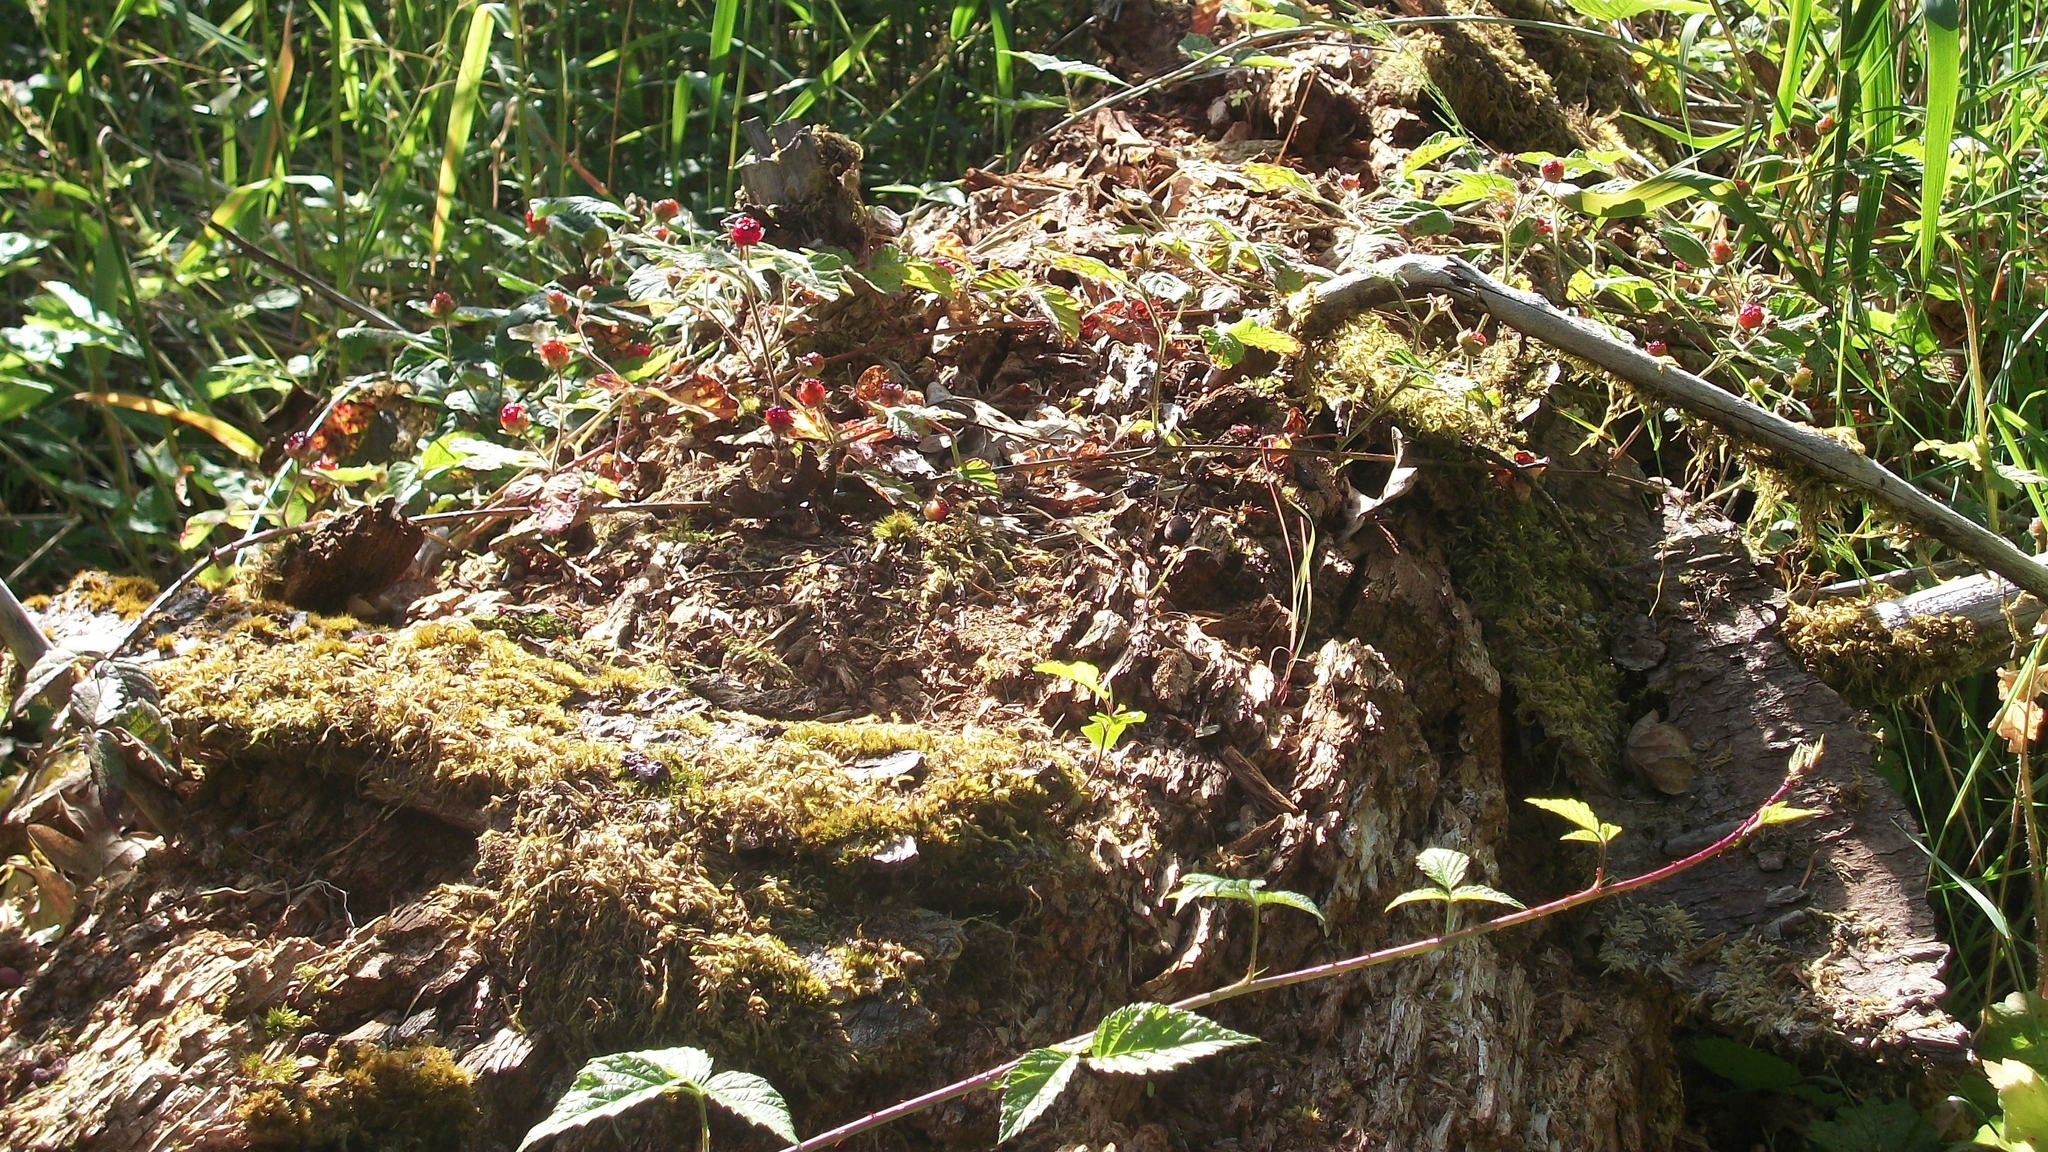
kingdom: Plantae
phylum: Tracheophyta
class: Magnoliopsida
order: Rosales
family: Rosaceae
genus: Rubus
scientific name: Rubus ursinus
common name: Pacific blackberry
